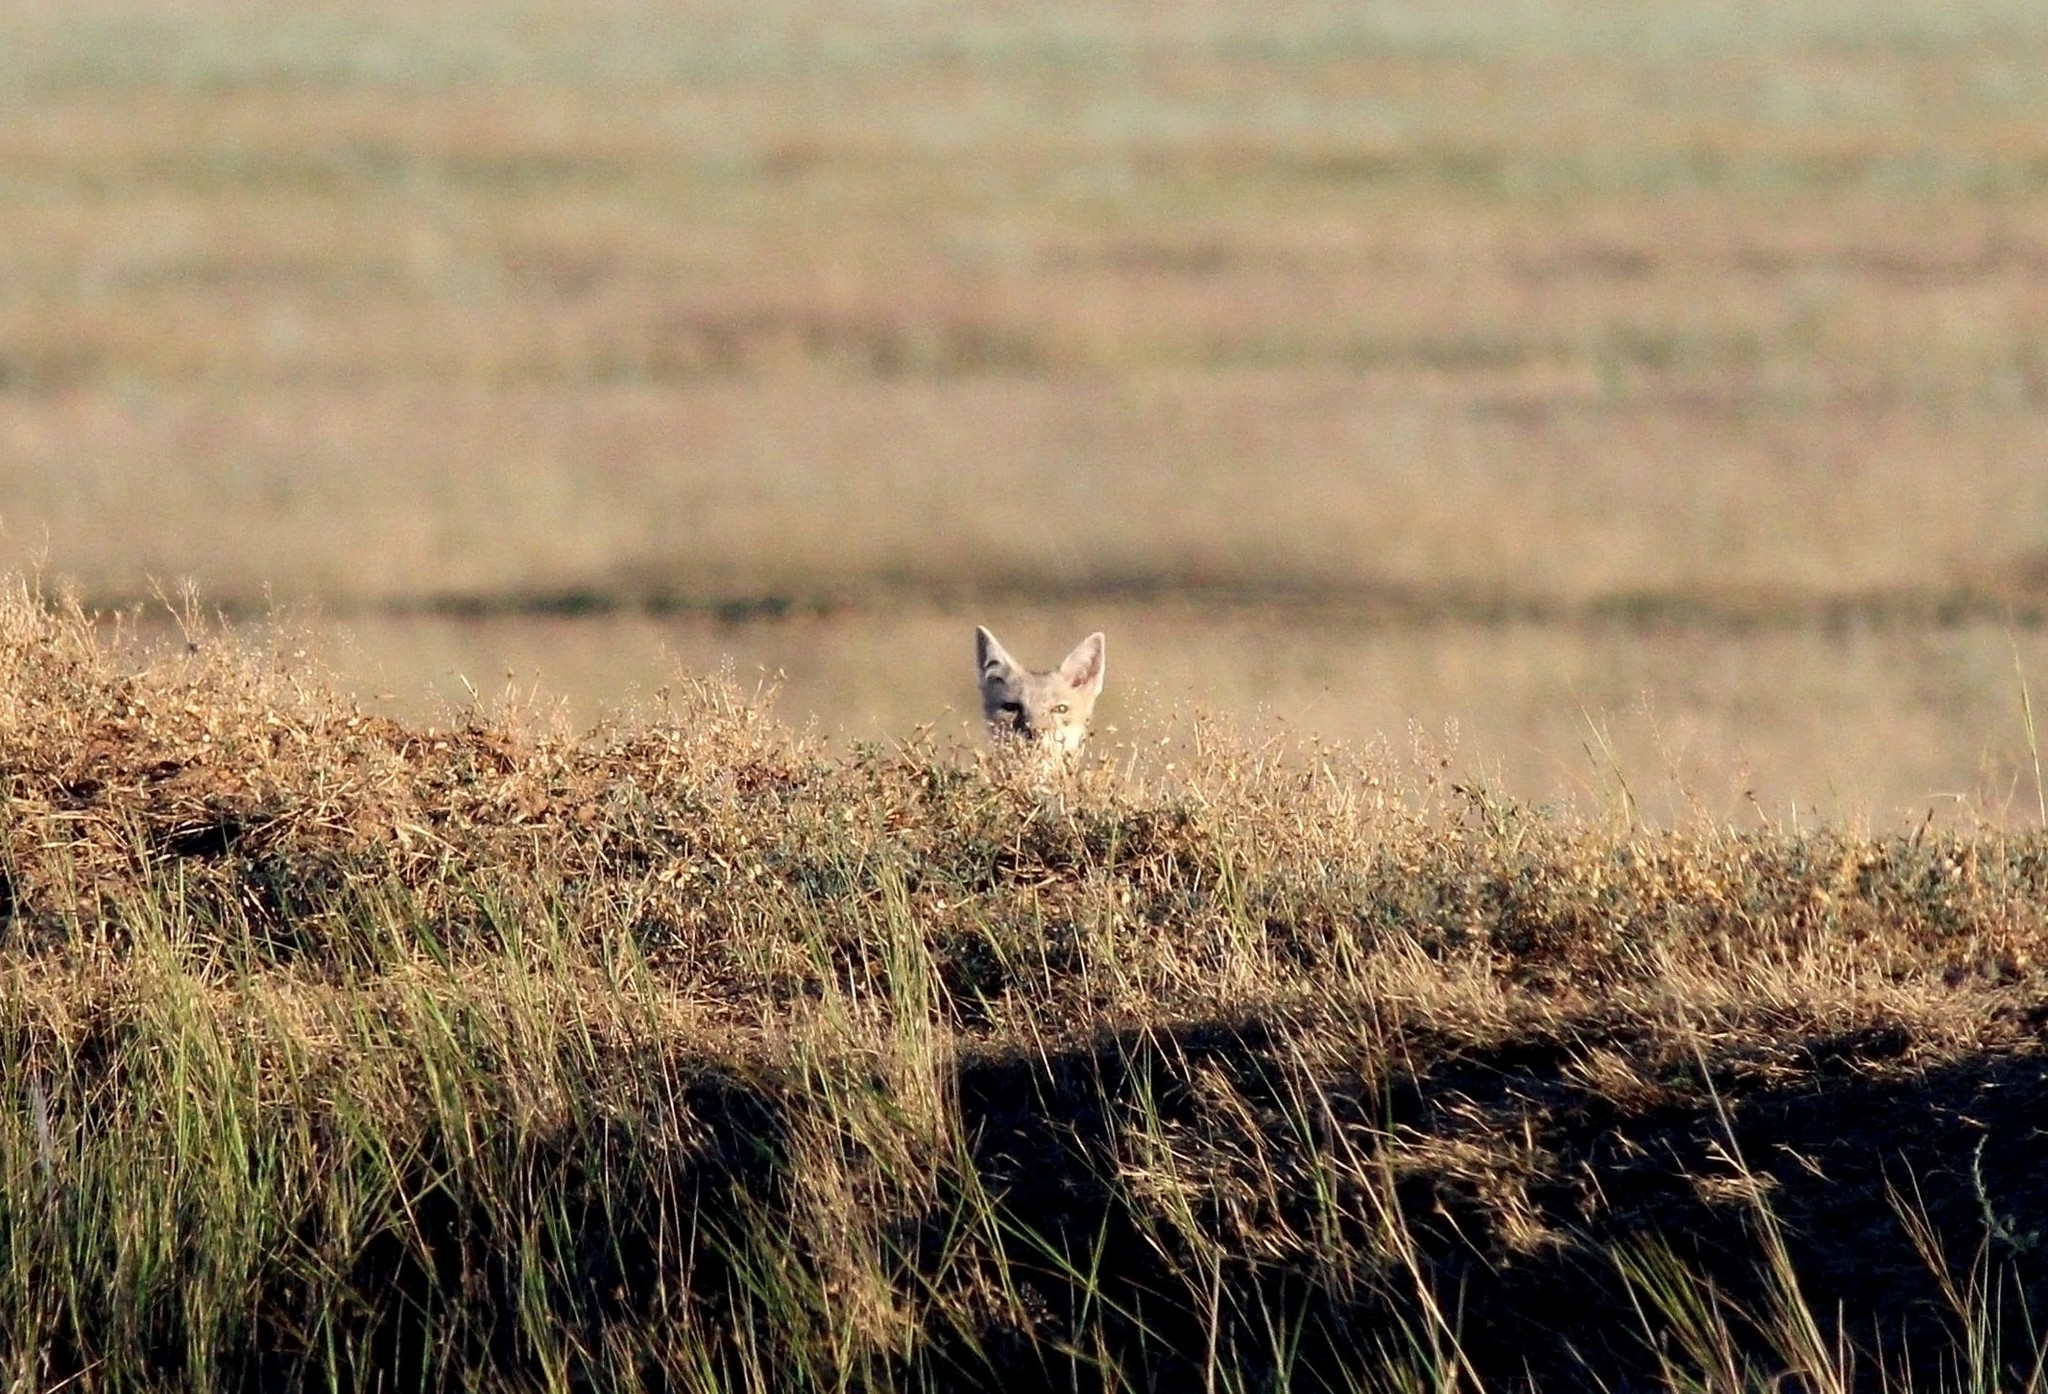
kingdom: Animalia
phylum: Chordata
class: Mammalia
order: Carnivora
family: Canidae
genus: Vulpes
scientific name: Vulpes corsac
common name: Corsac fox
